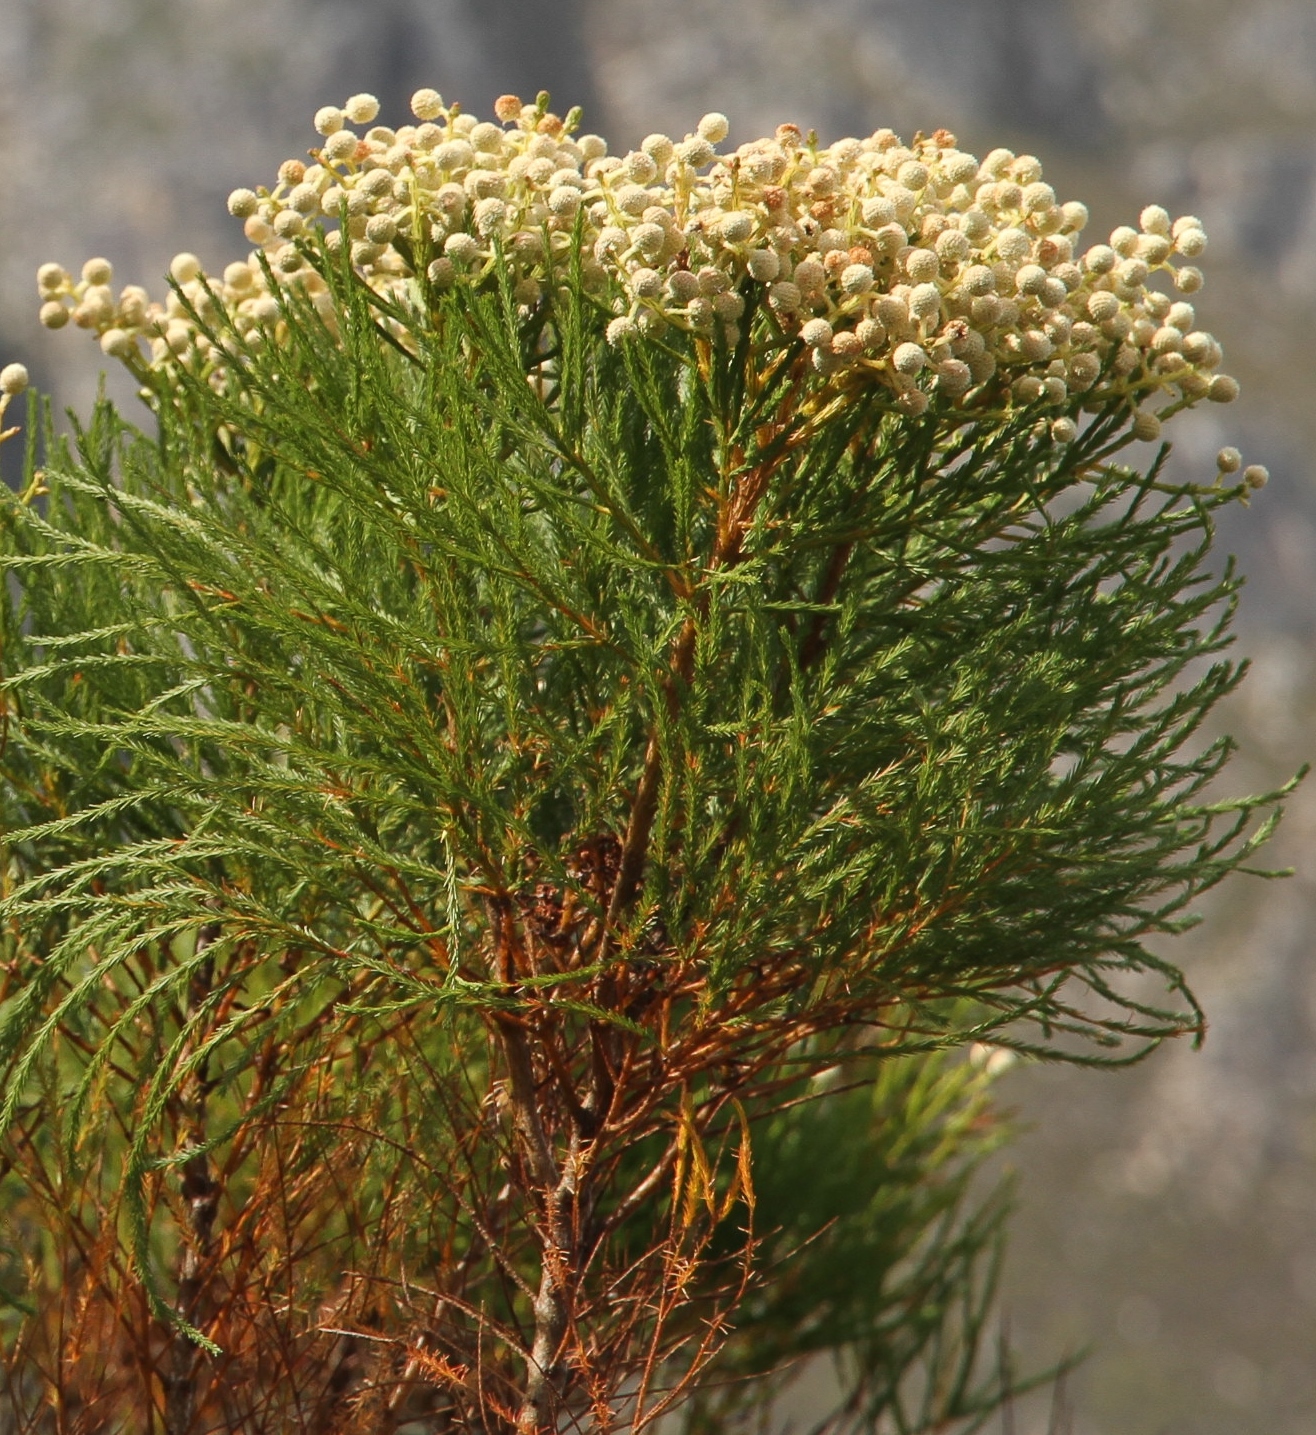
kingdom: Plantae
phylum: Tracheophyta
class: Magnoliopsida
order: Bruniales
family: Bruniaceae
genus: Berzelia
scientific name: Berzelia lanuginosa
